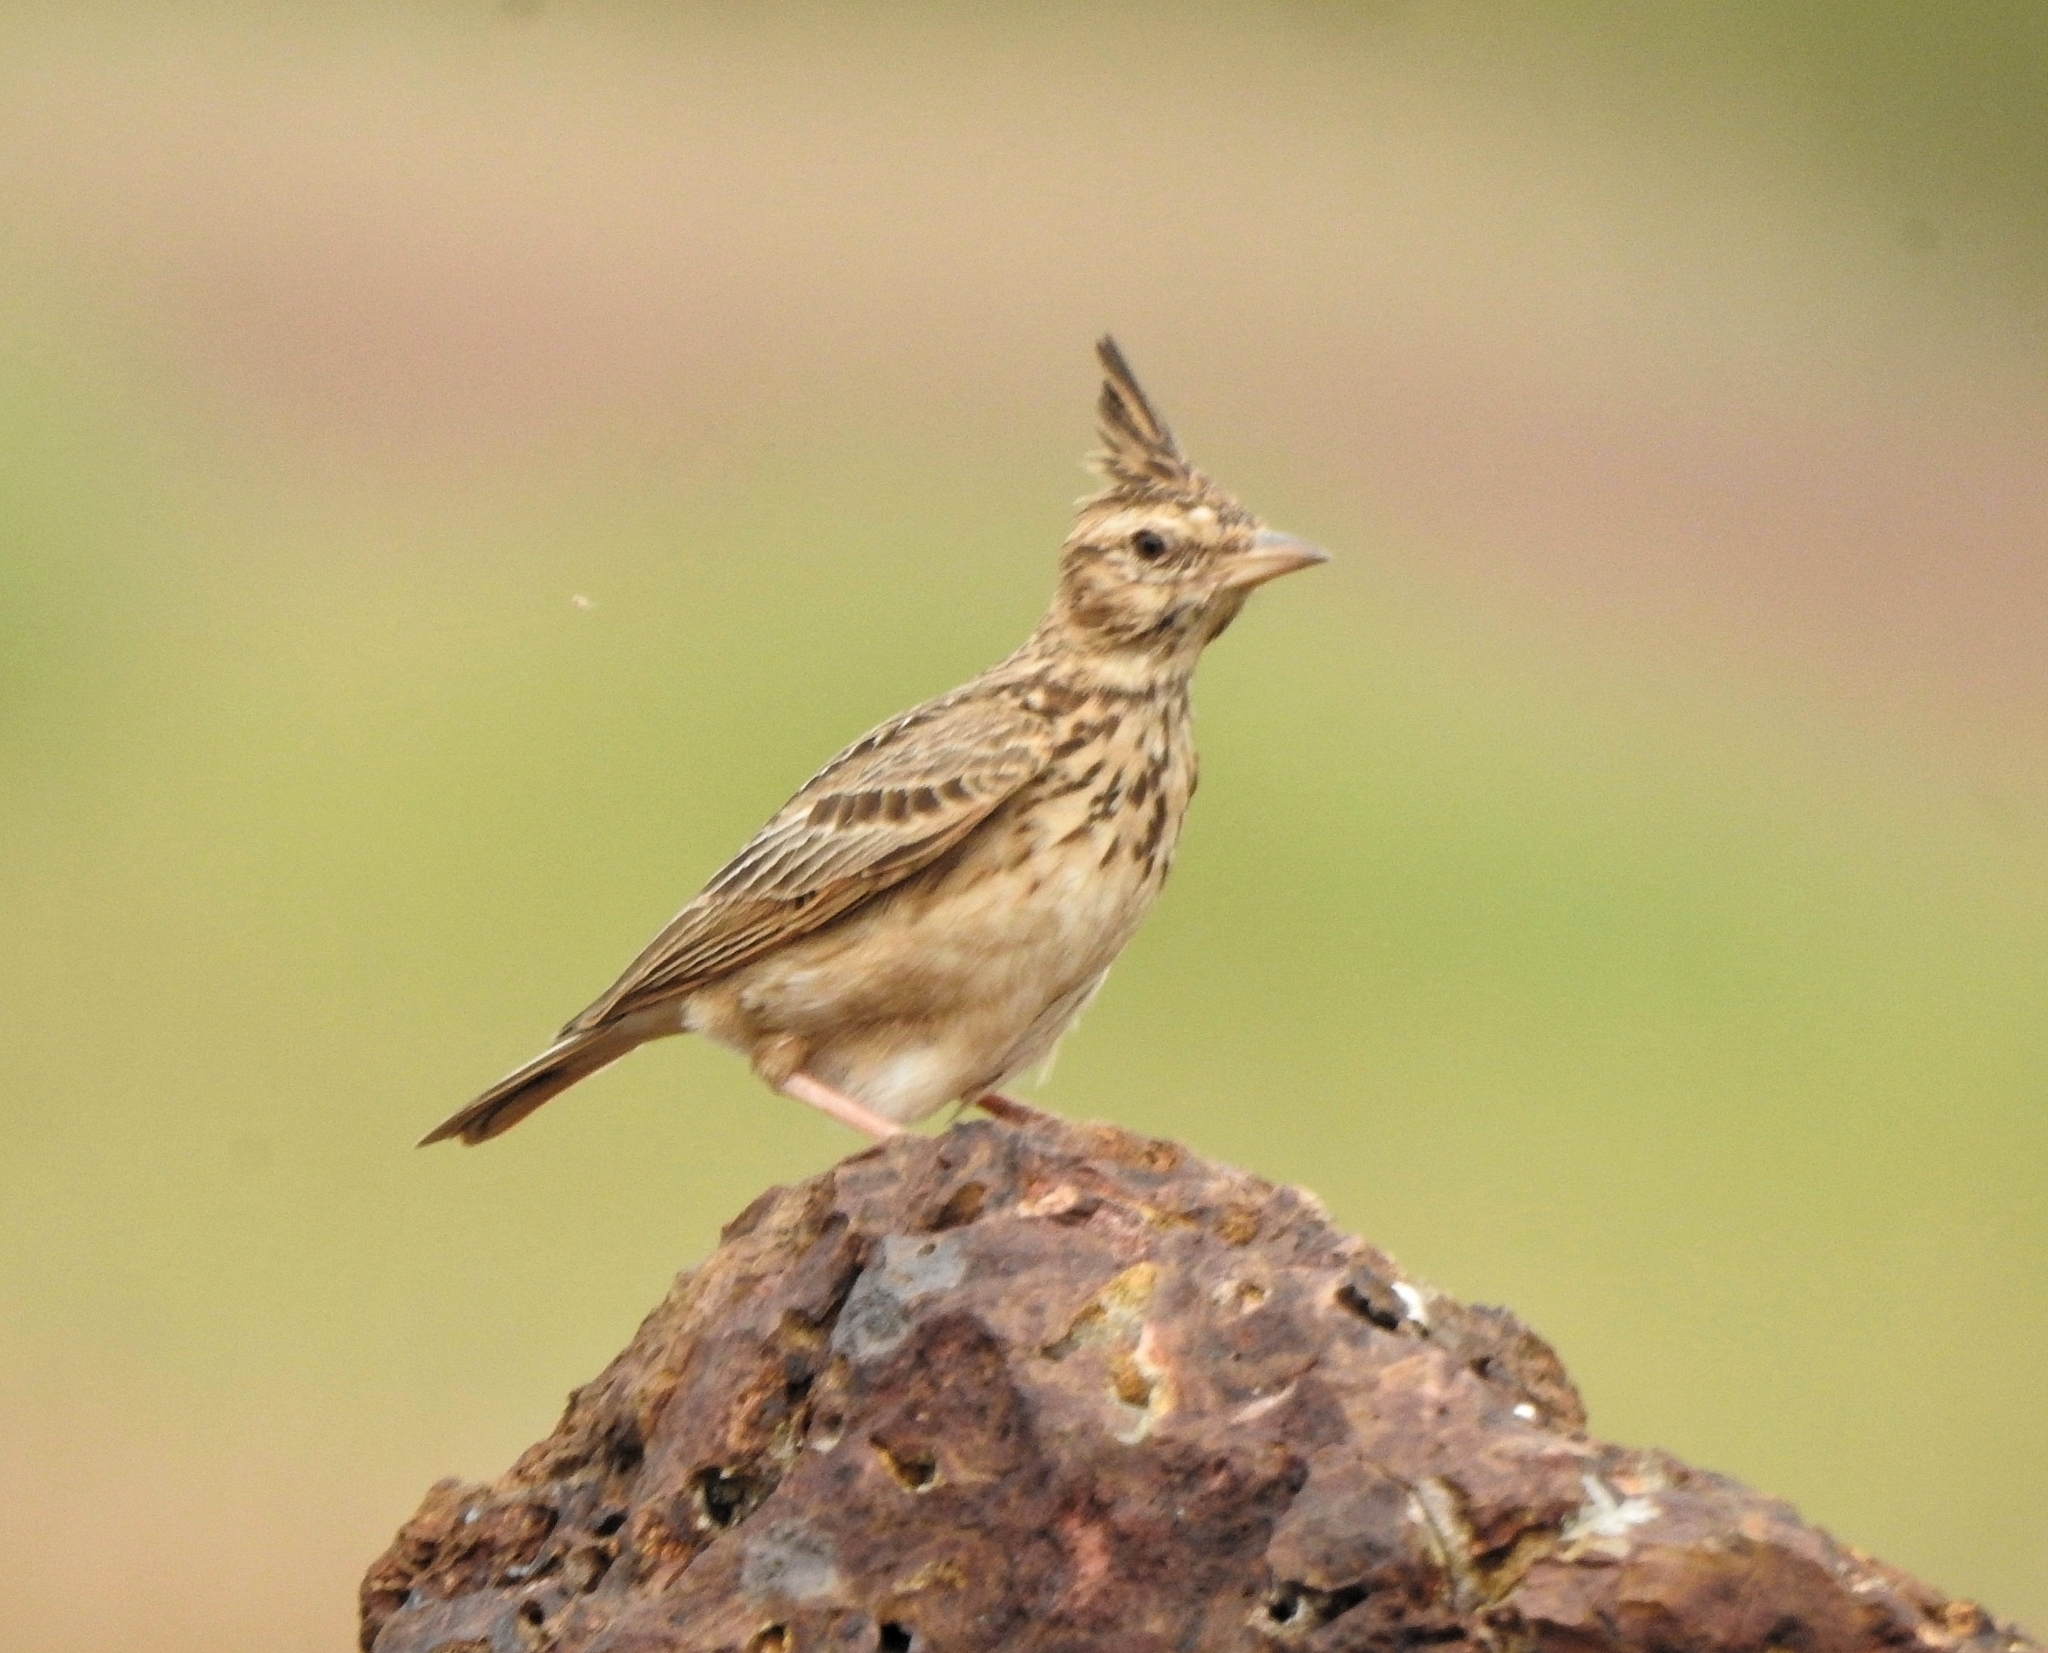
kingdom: Animalia
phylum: Chordata
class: Aves
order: Passeriformes
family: Alaudidae
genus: Galerida
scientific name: Galerida malabarica
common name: Malabar lark
